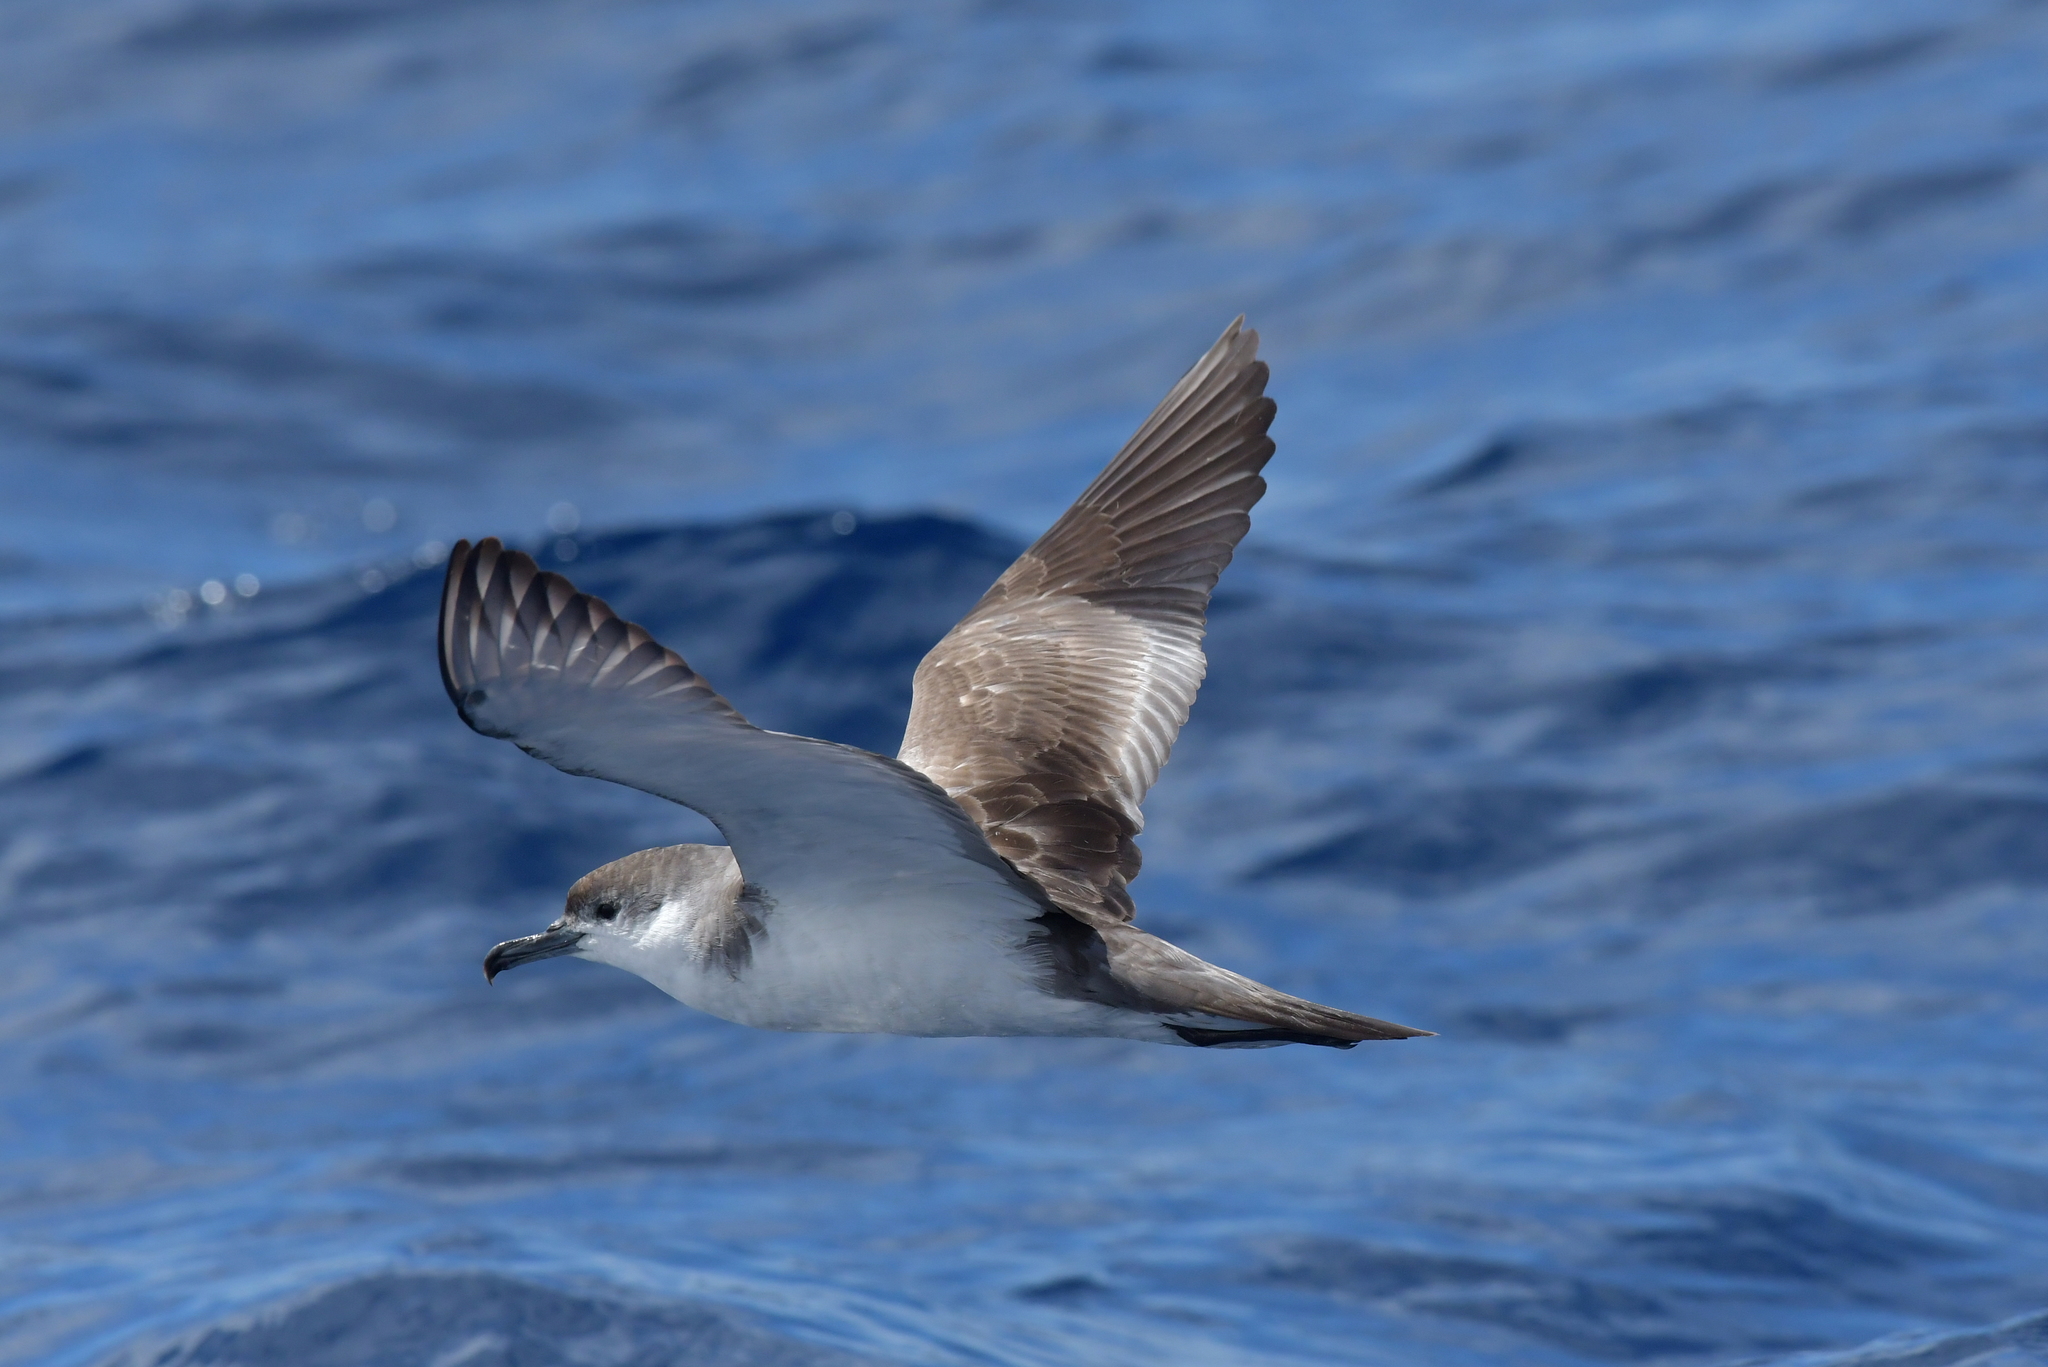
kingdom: Animalia
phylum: Chordata
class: Aves
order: Procellariiformes
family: Procellariidae
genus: Puffinus
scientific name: Puffinus bulleri
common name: Buller's shearwater
